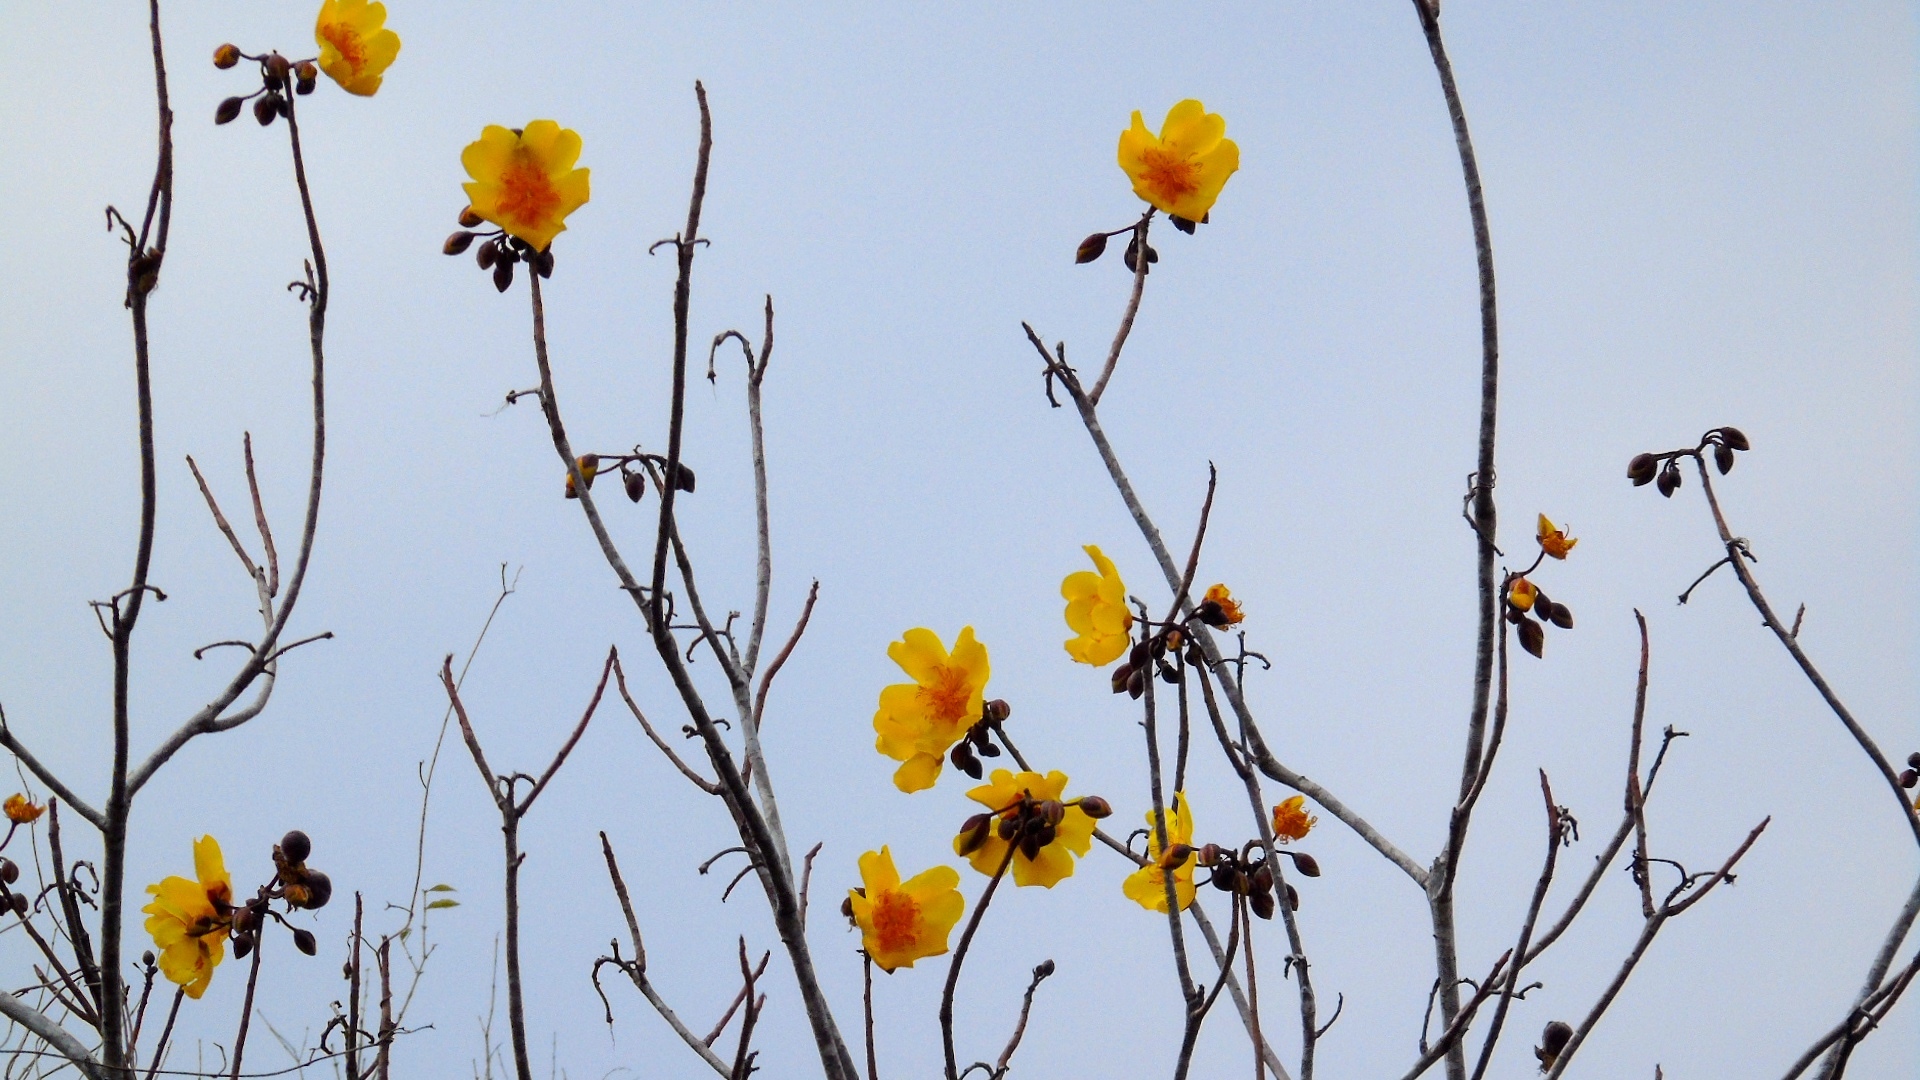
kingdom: Plantae
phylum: Tracheophyta
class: Magnoliopsida
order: Malvales
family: Cochlospermaceae
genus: Cochlospermum
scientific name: Cochlospermum vitifolium
